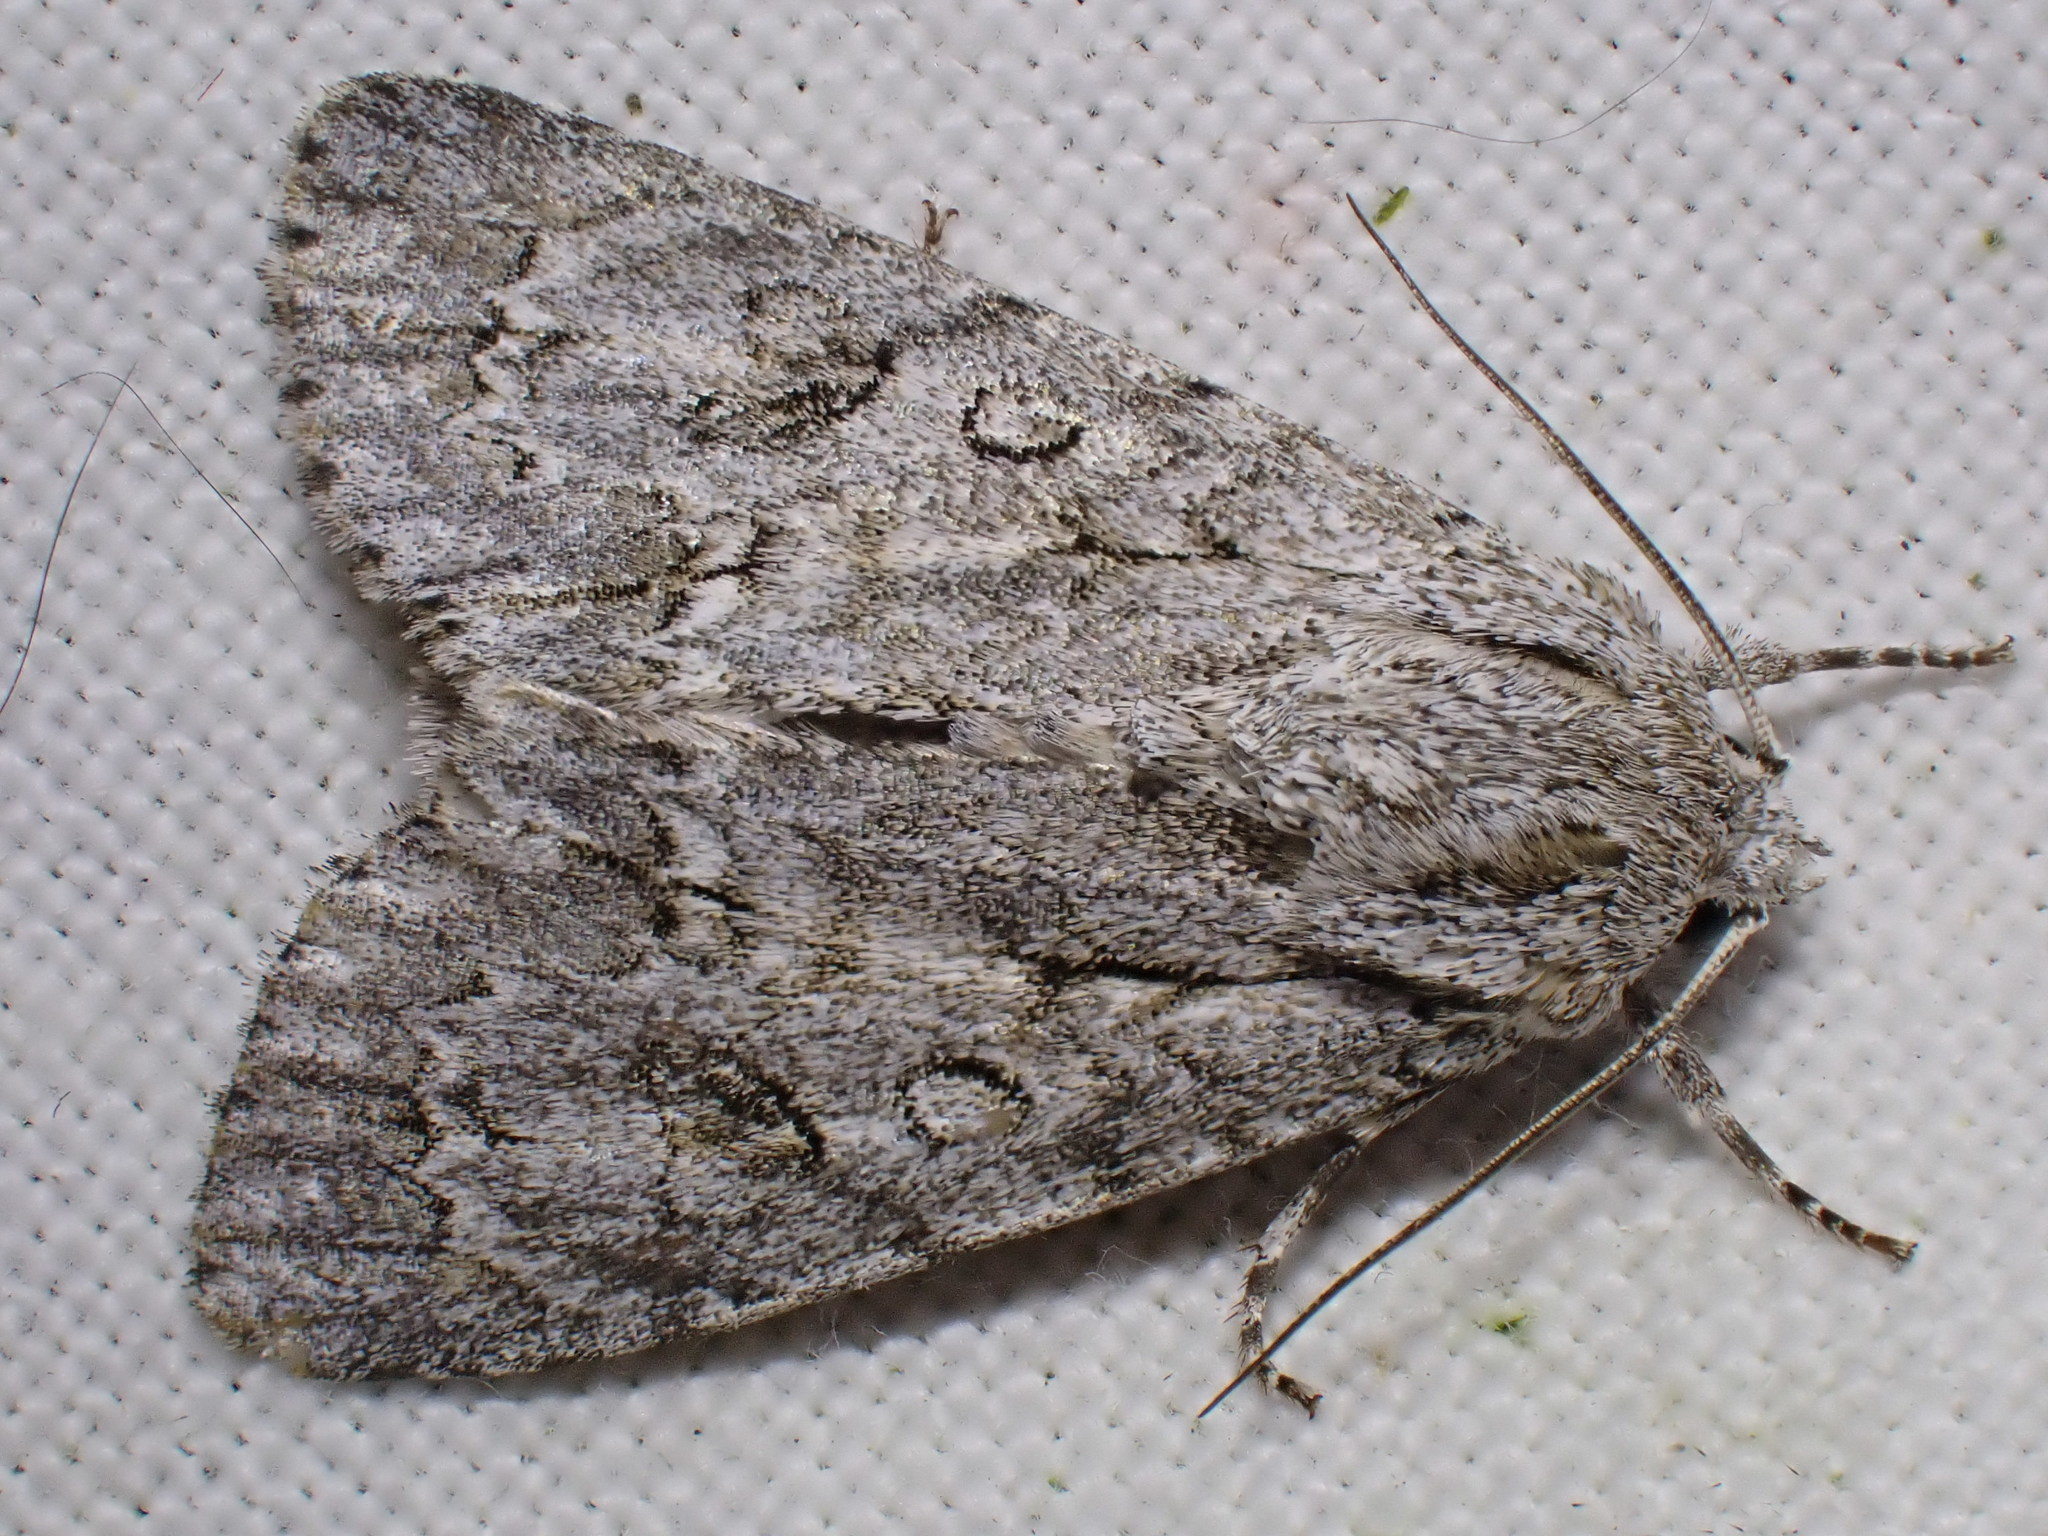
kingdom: Animalia
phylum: Arthropoda
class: Insecta
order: Lepidoptera
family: Noctuidae
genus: Acronicta
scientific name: Acronicta aceris
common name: Sycamore
